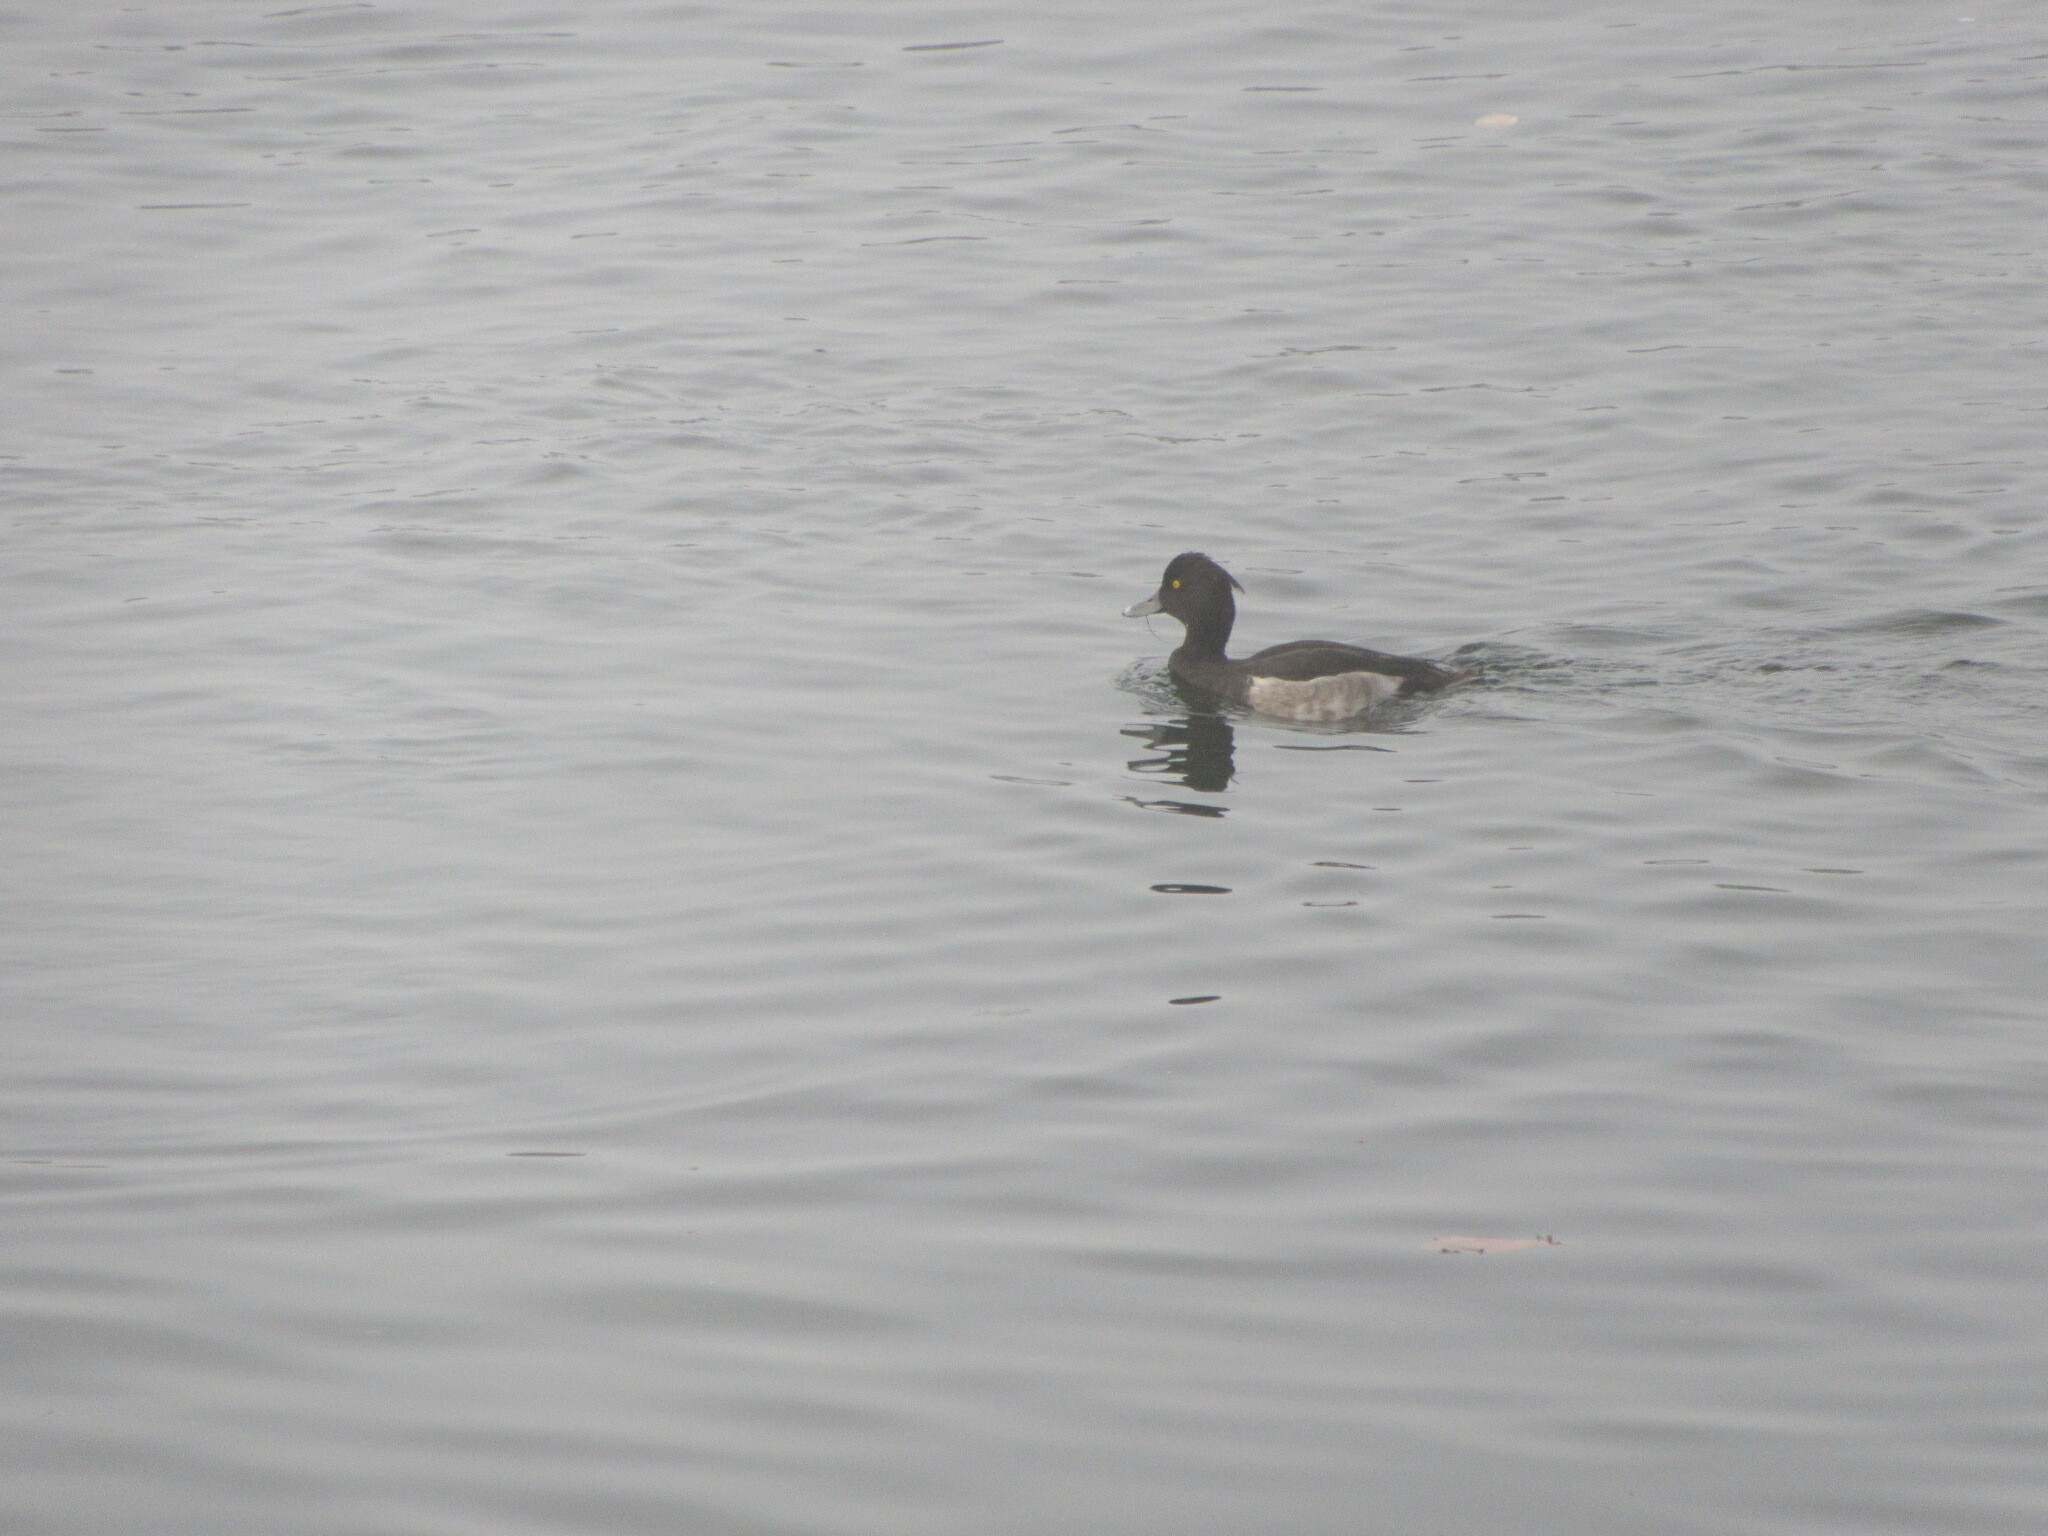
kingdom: Animalia
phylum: Chordata
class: Aves
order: Anseriformes
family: Anatidae
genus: Aythya
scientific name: Aythya fuligula
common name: Tufted duck
